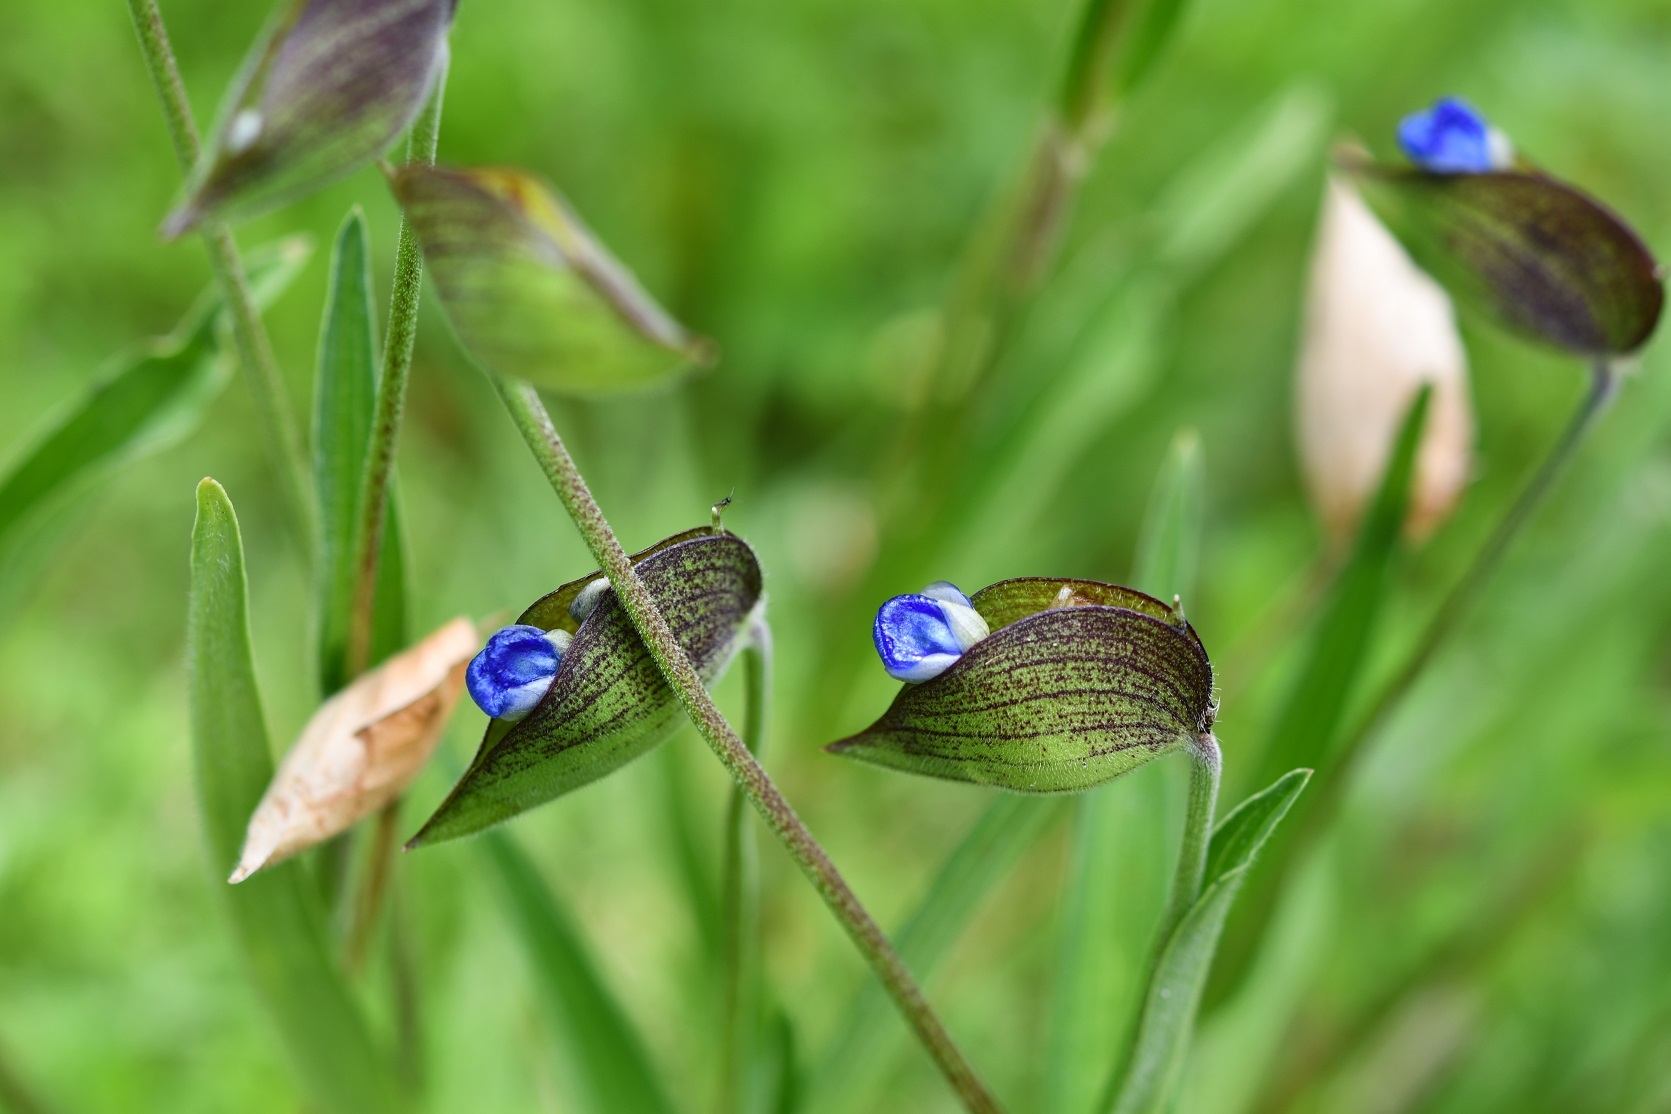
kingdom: Plantae
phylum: Tracheophyta
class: Liliopsida
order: Commelinales
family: Commelinaceae
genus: Commelina
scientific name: Commelina tuberosa
